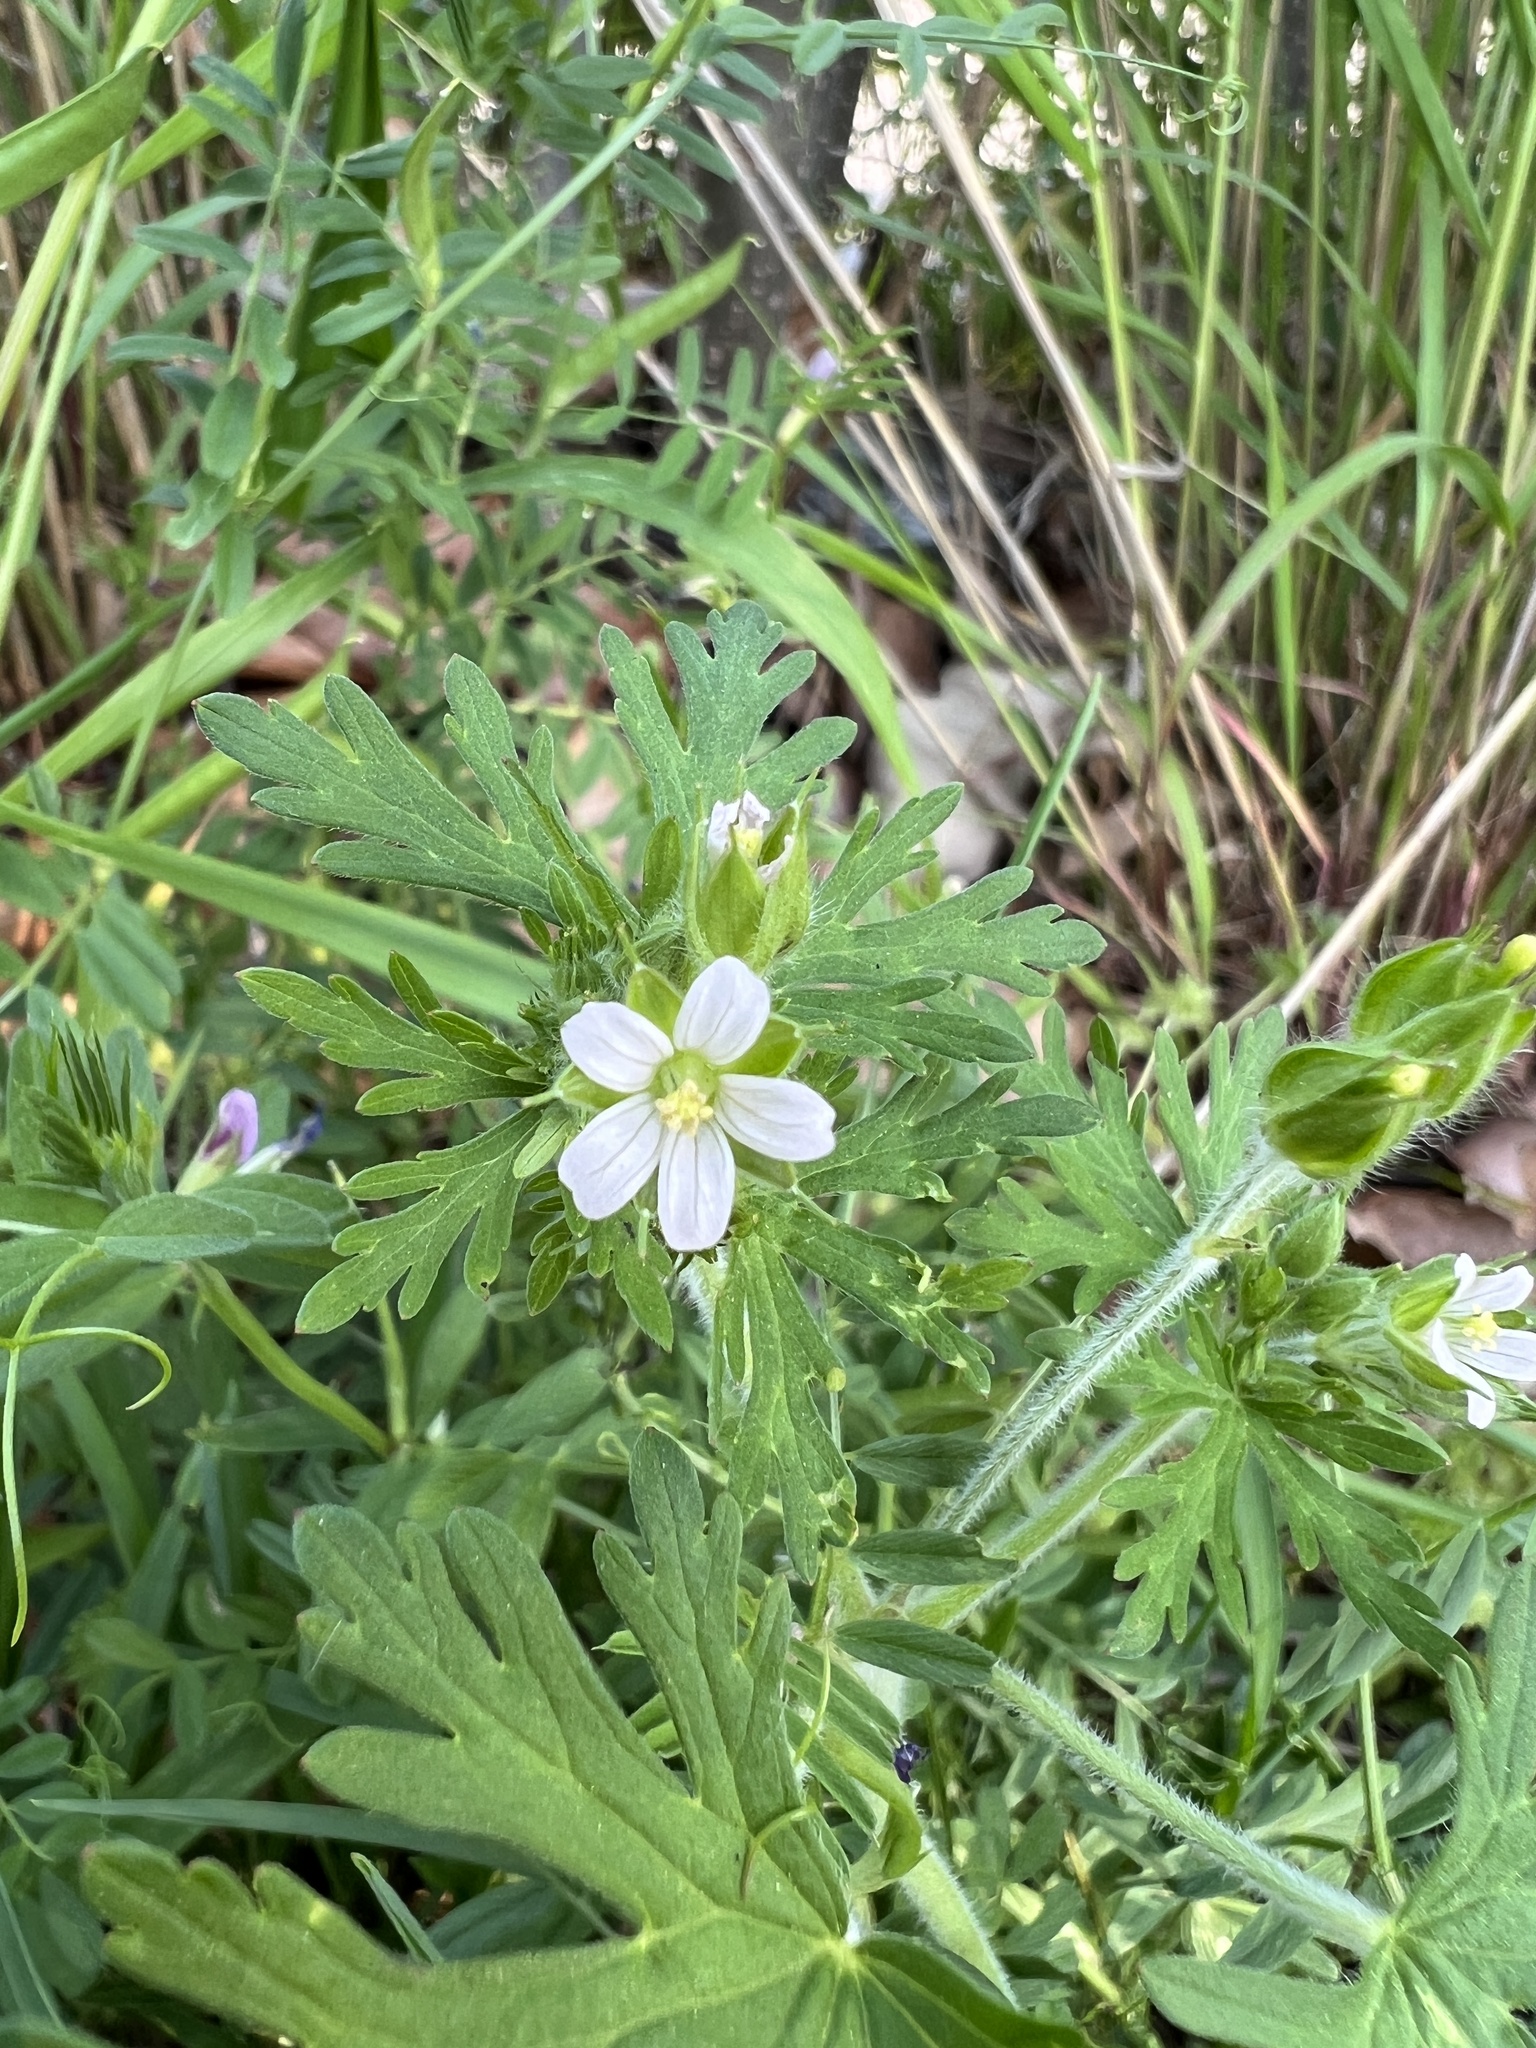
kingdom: Plantae
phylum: Tracheophyta
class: Magnoliopsida
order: Geraniales
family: Geraniaceae
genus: Geranium
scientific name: Geranium carolinianum
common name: Carolina crane's-bill
